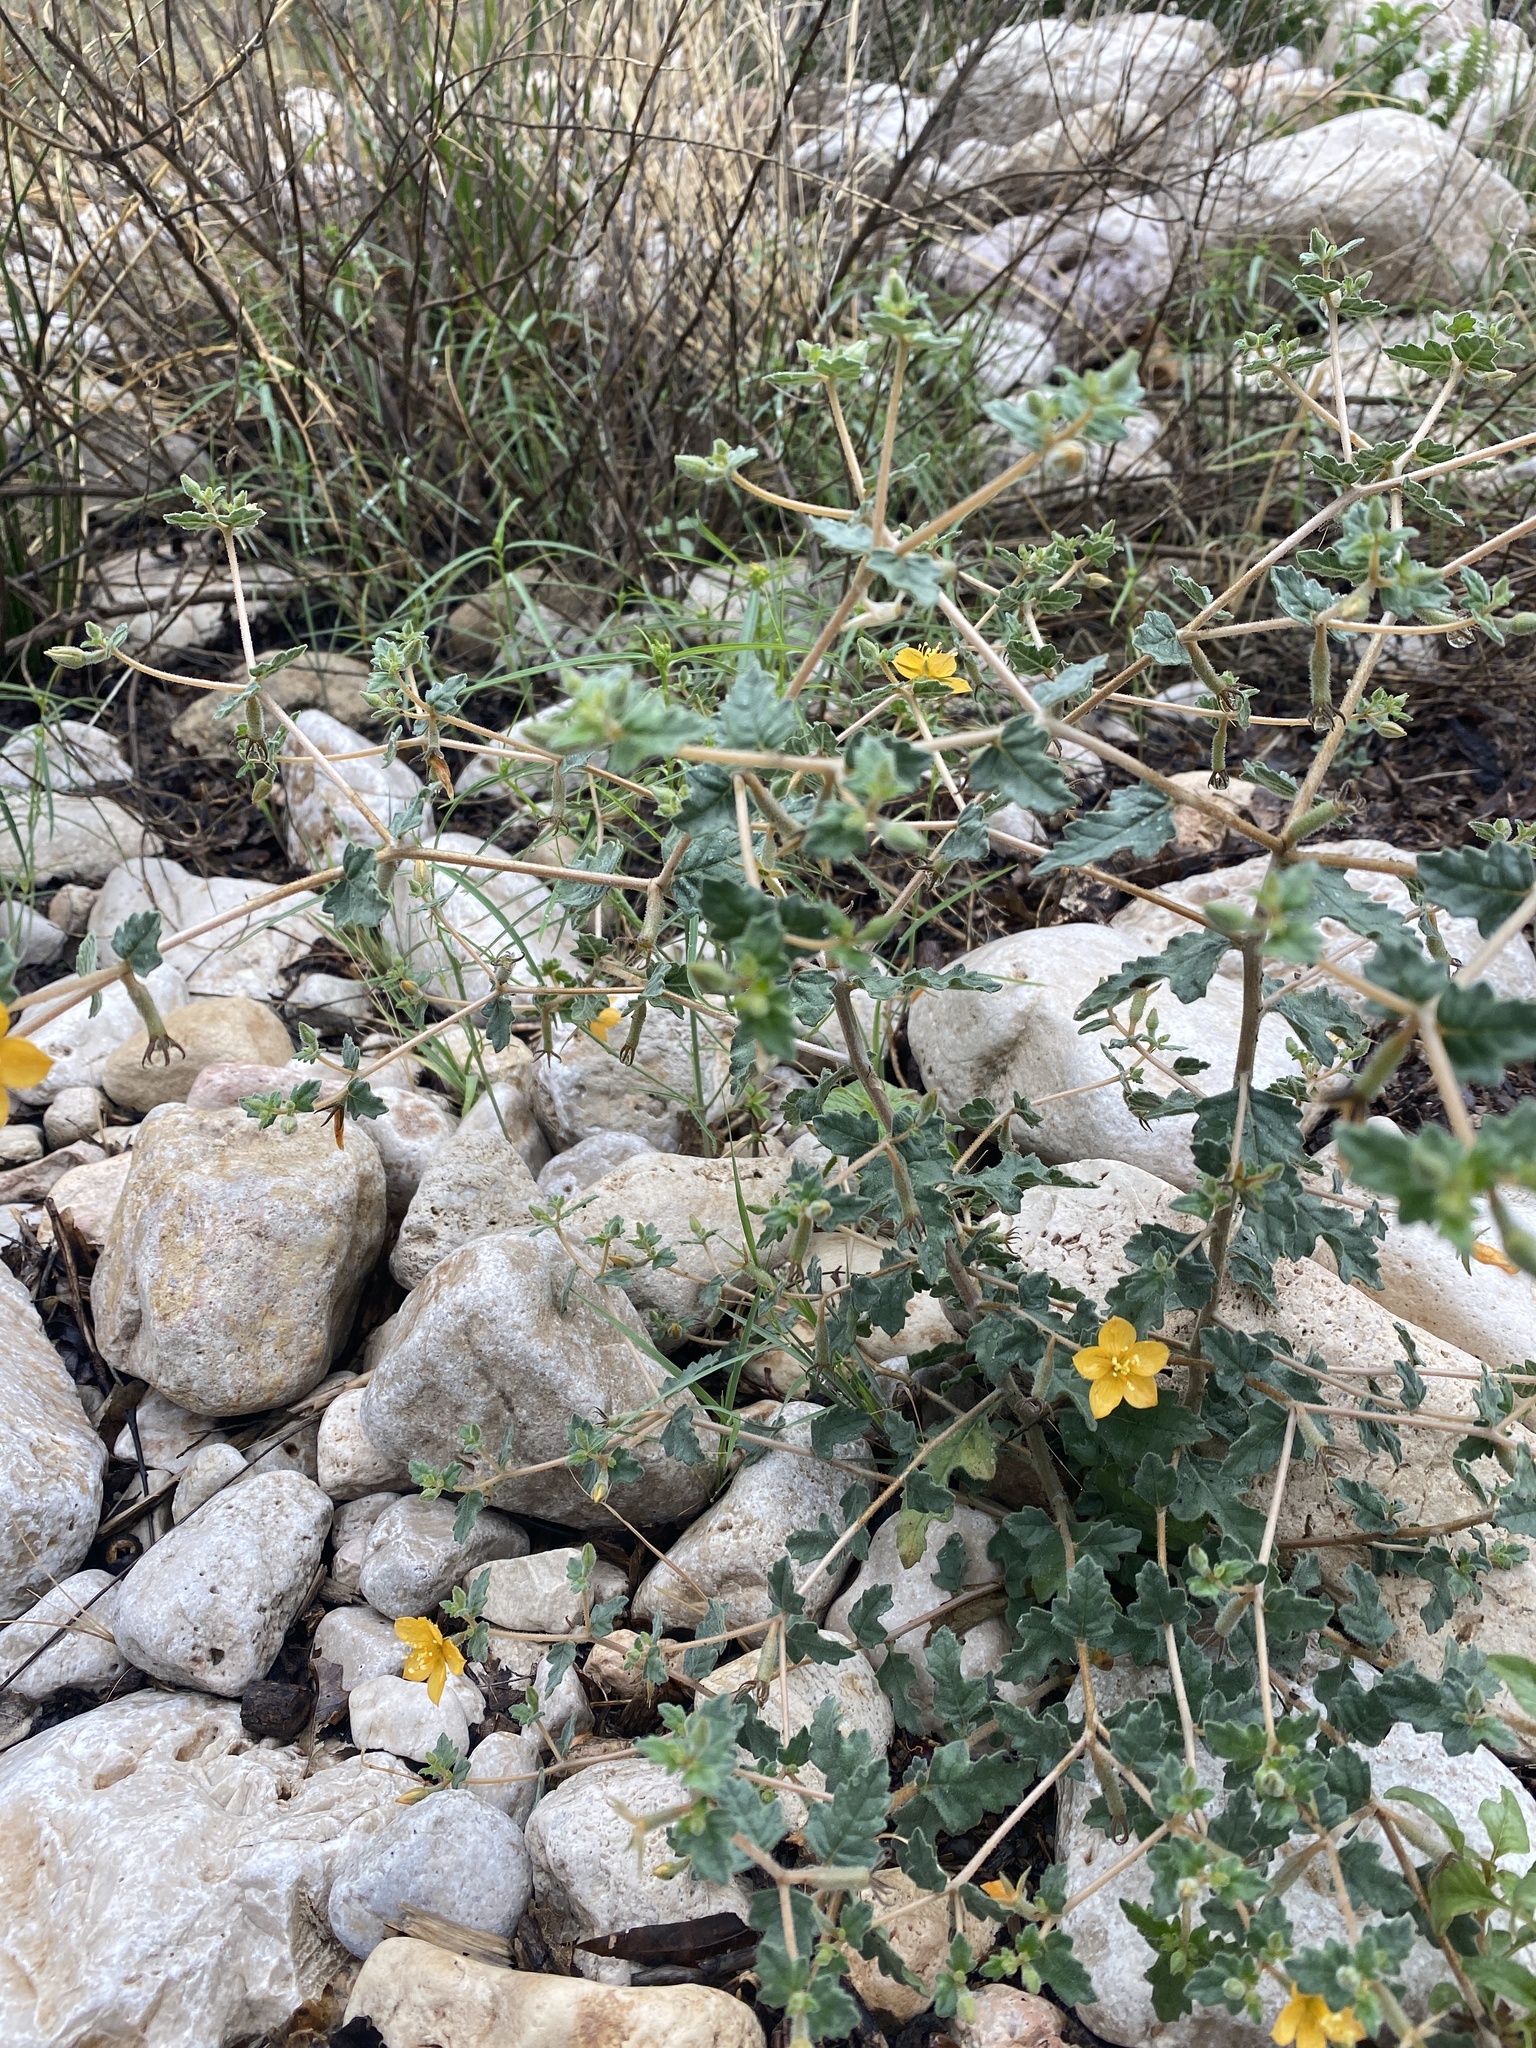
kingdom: Plantae
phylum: Tracheophyta
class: Magnoliopsida
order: Cornales
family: Loasaceae
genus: Mentzelia
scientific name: Mentzelia oligosperma
